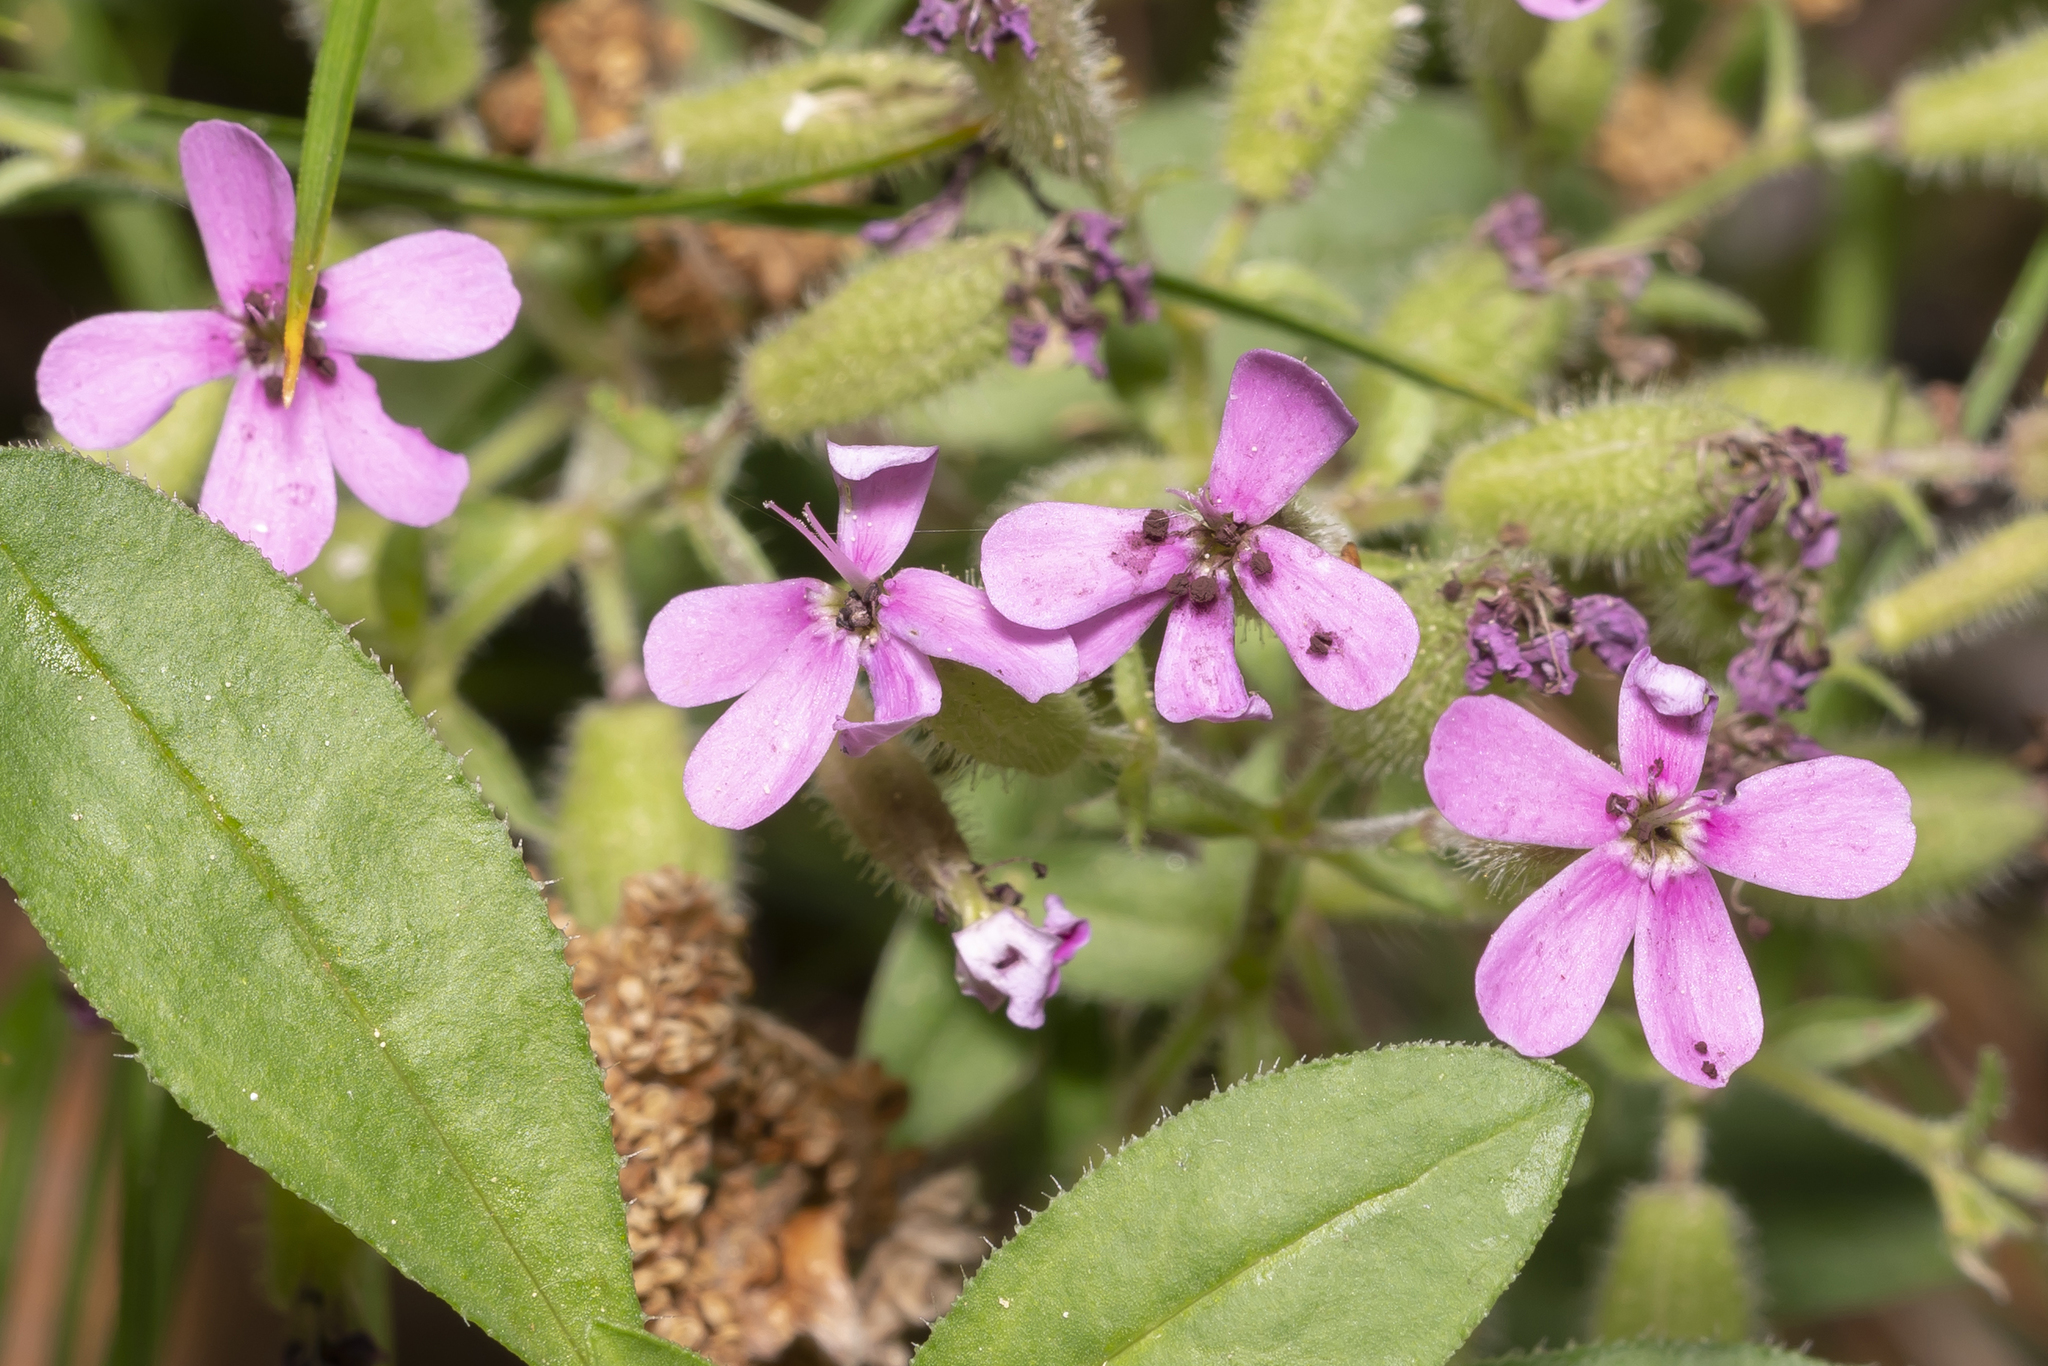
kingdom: Fungi
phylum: Basidiomycota
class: Microbotryomycetes
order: Microbotryales
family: Microbotryaceae
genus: Microbotryum
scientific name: Microbotryum saponariae
